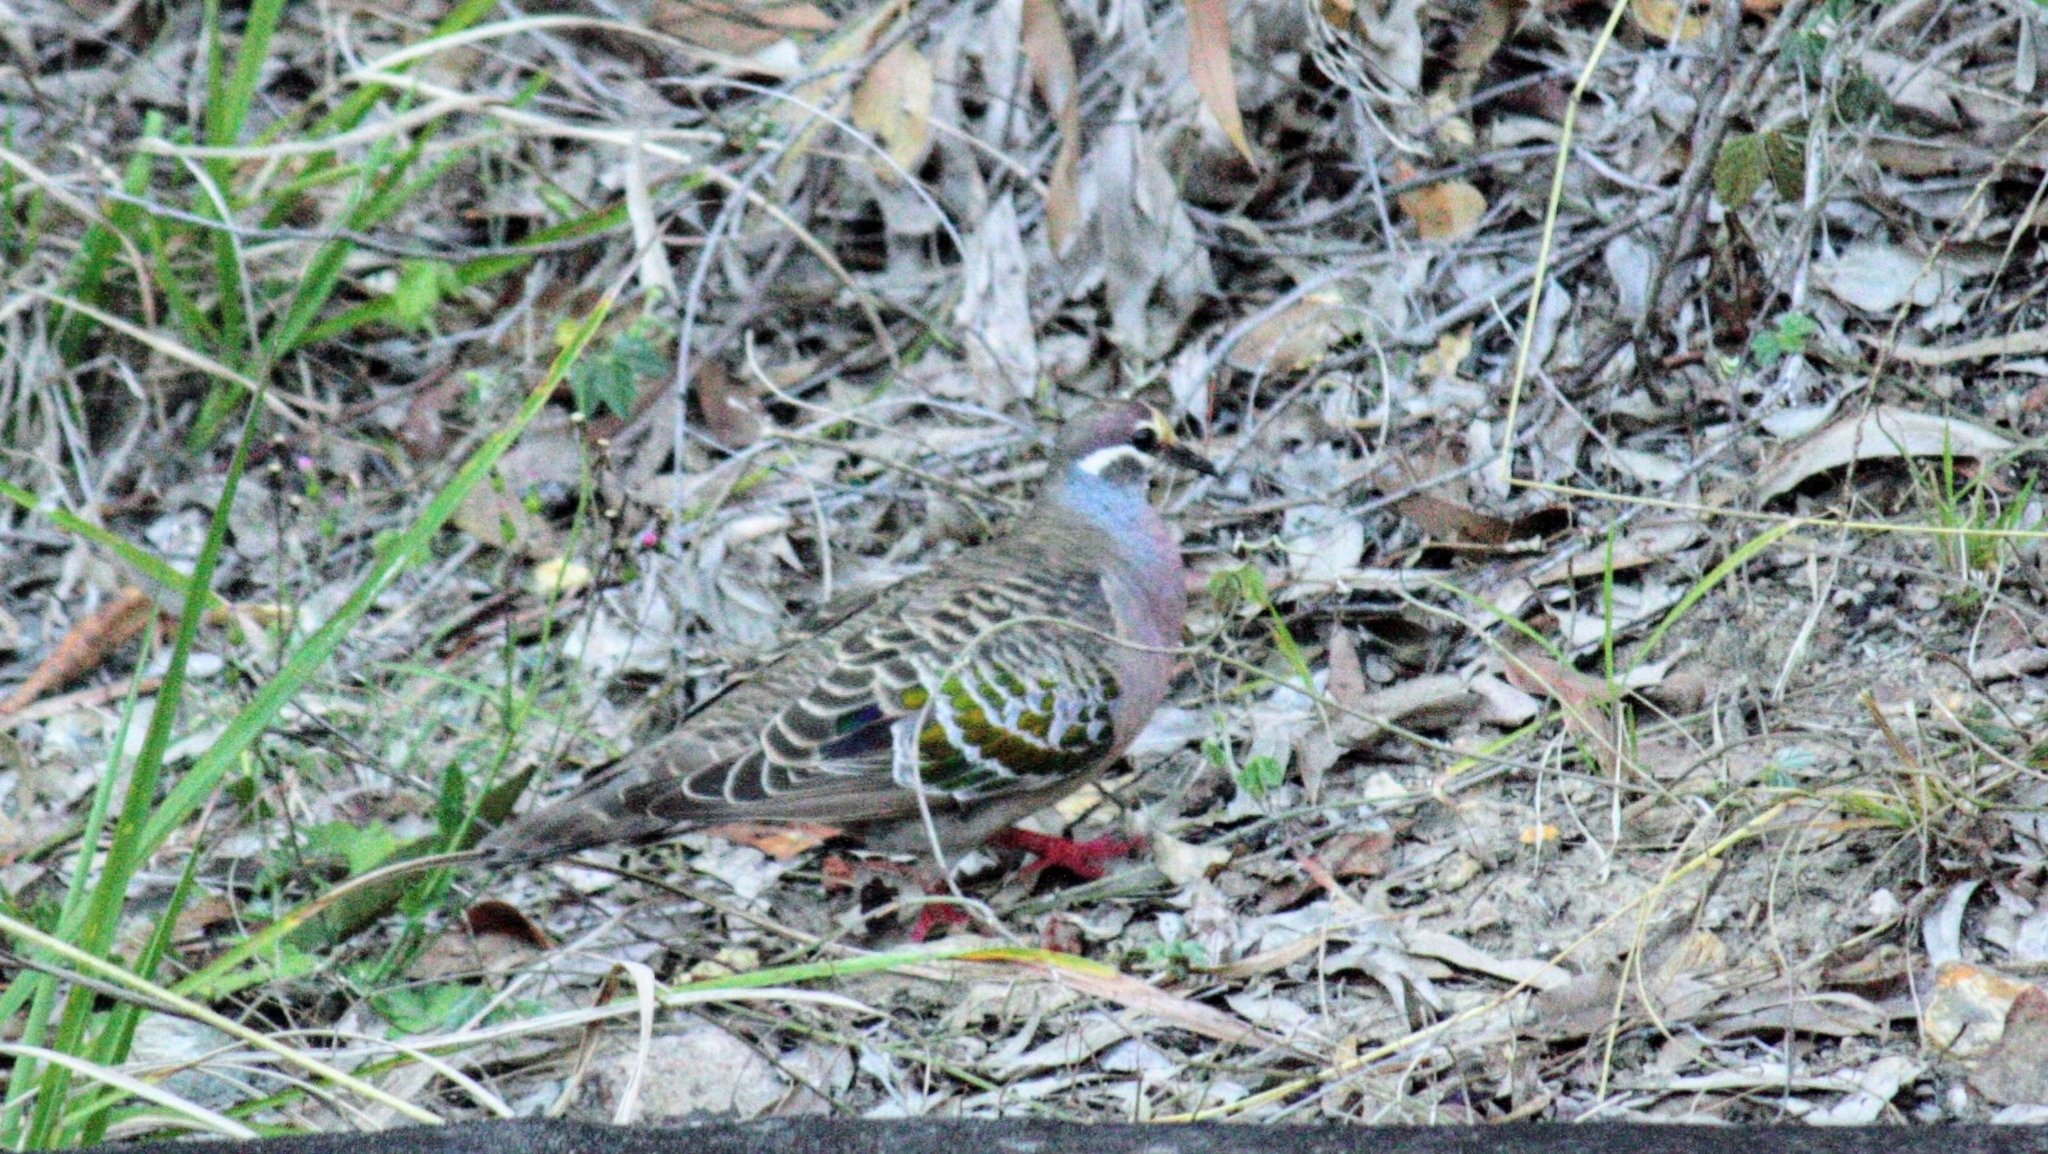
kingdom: Animalia
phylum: Chordata
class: Aves
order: Columbiformes
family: Columbidae
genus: Phaps
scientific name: Phaps chalcoptera
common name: Common bronzewing
